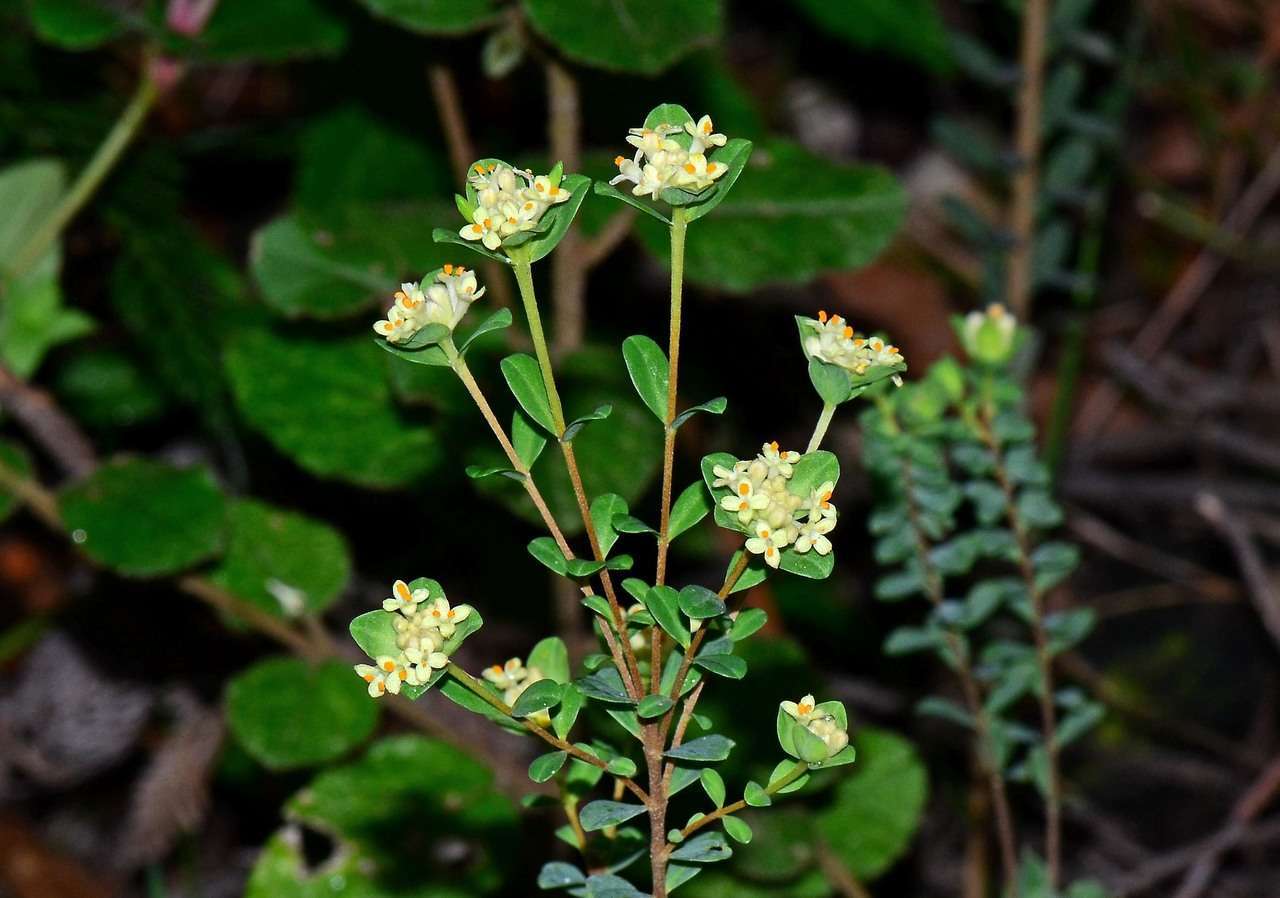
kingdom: Plantae
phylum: Tracheophyta
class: Magnoliopsida
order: Malvales
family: Thymelaeaceae
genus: Pimelea
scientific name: Pimelea flava
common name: Yellow riceflower
